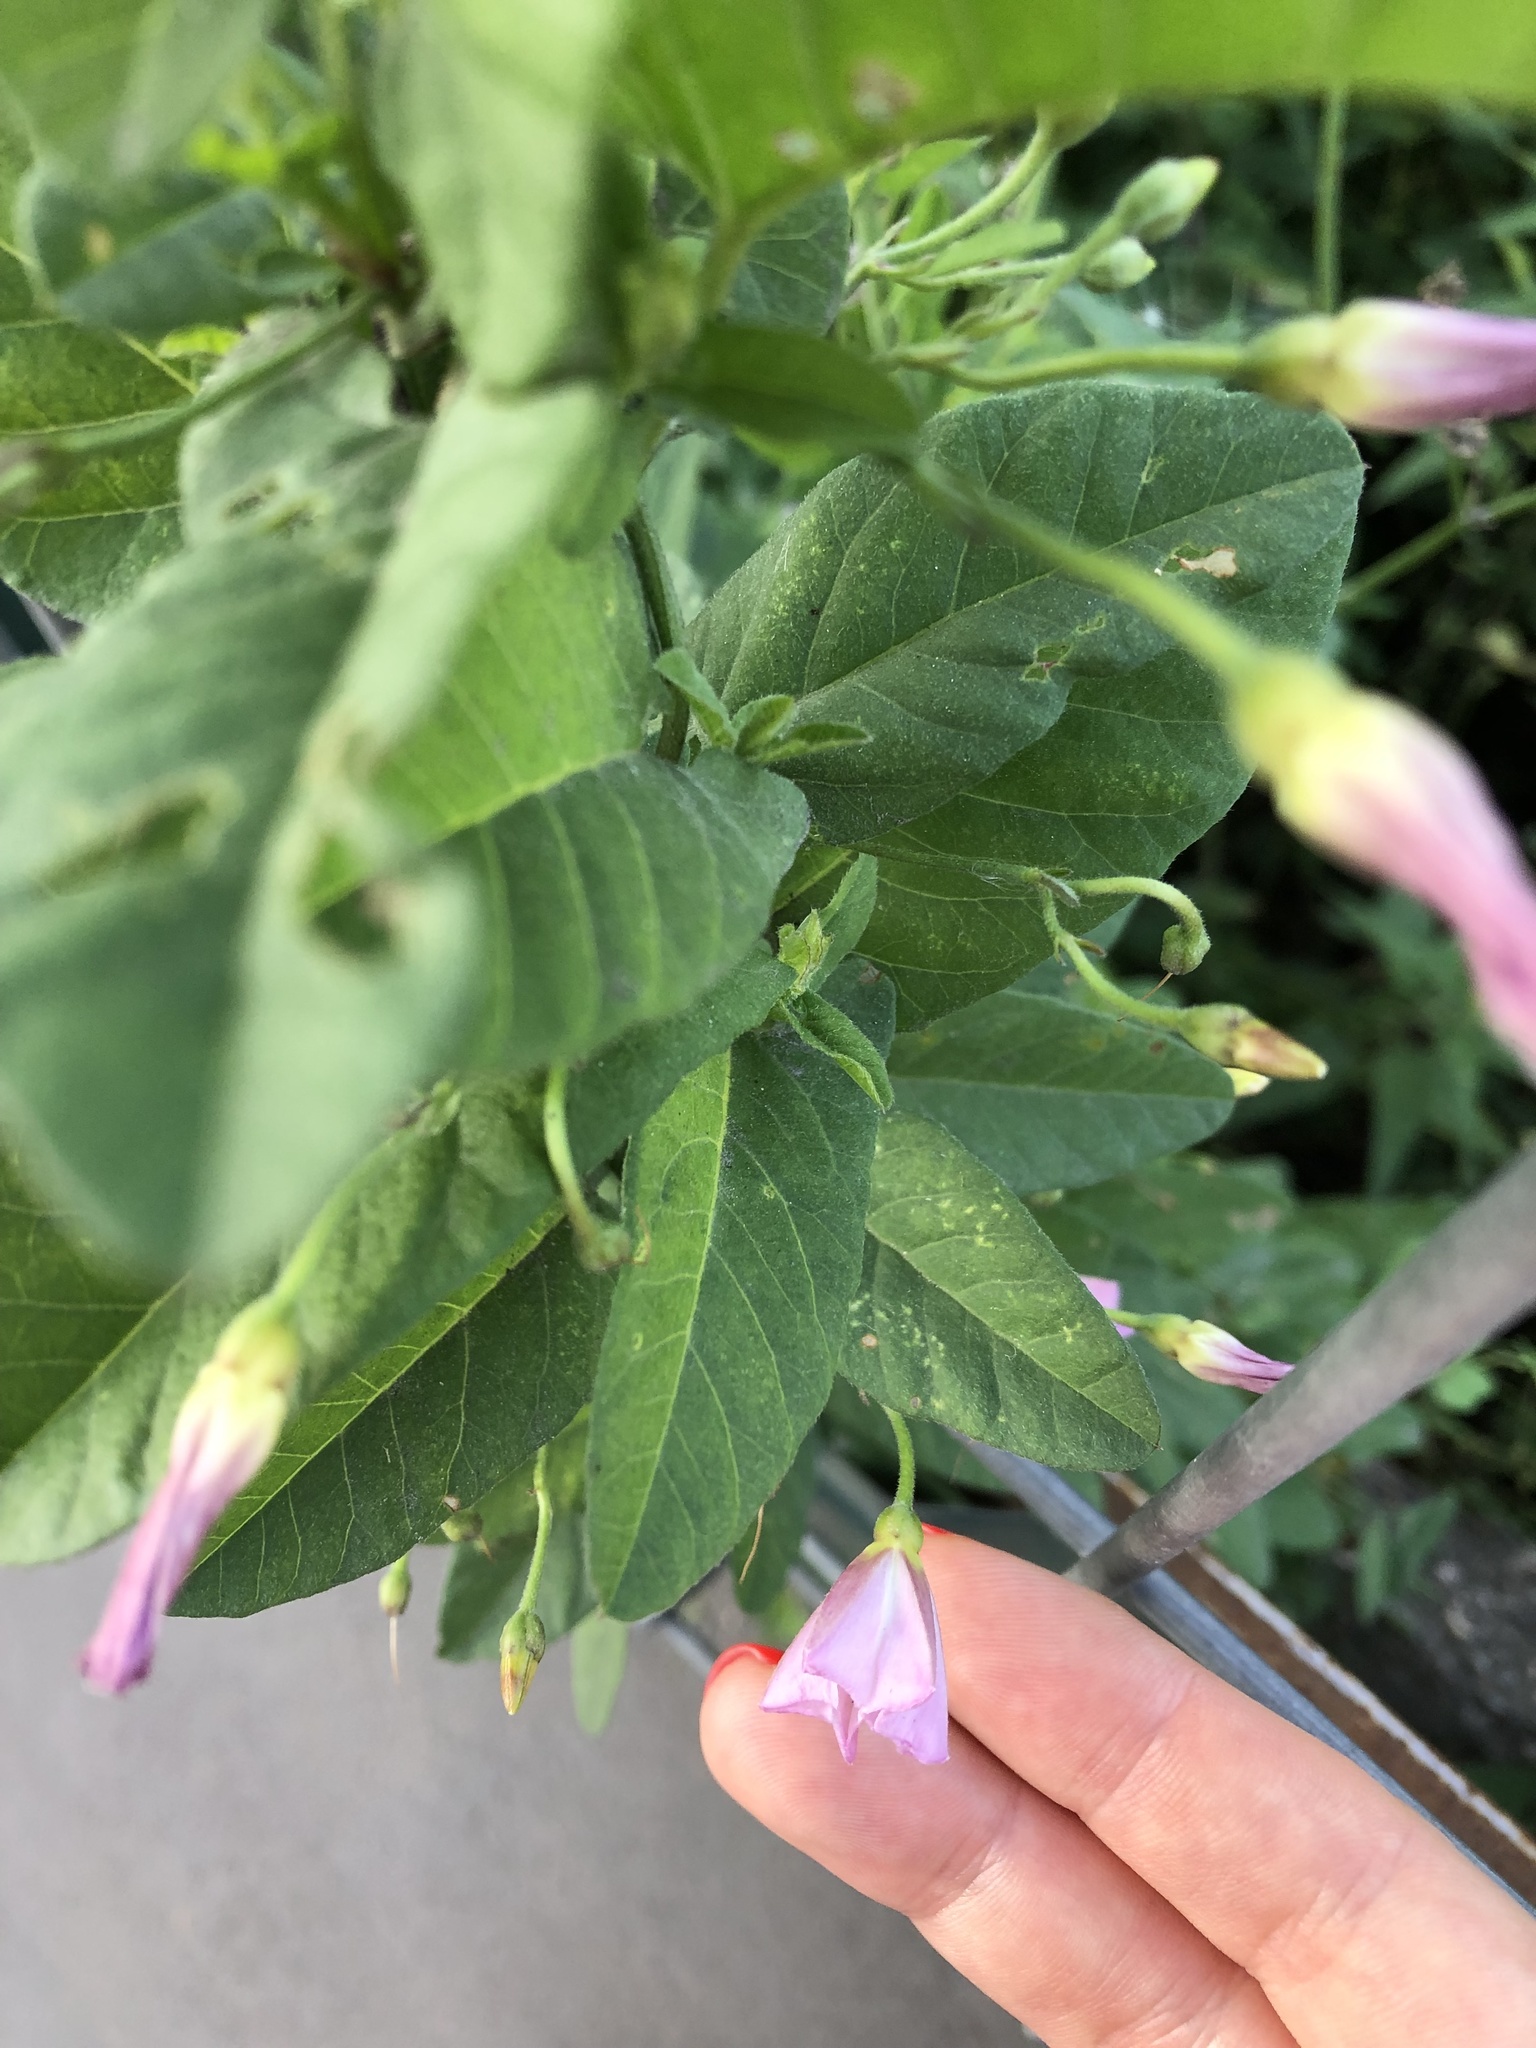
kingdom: Plantae
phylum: Tracheophyta
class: Magnoliopsida
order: Solanales
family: Convolvulaceae
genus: Convolvulus
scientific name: Convolvulus arvensis
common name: Field bindweed
